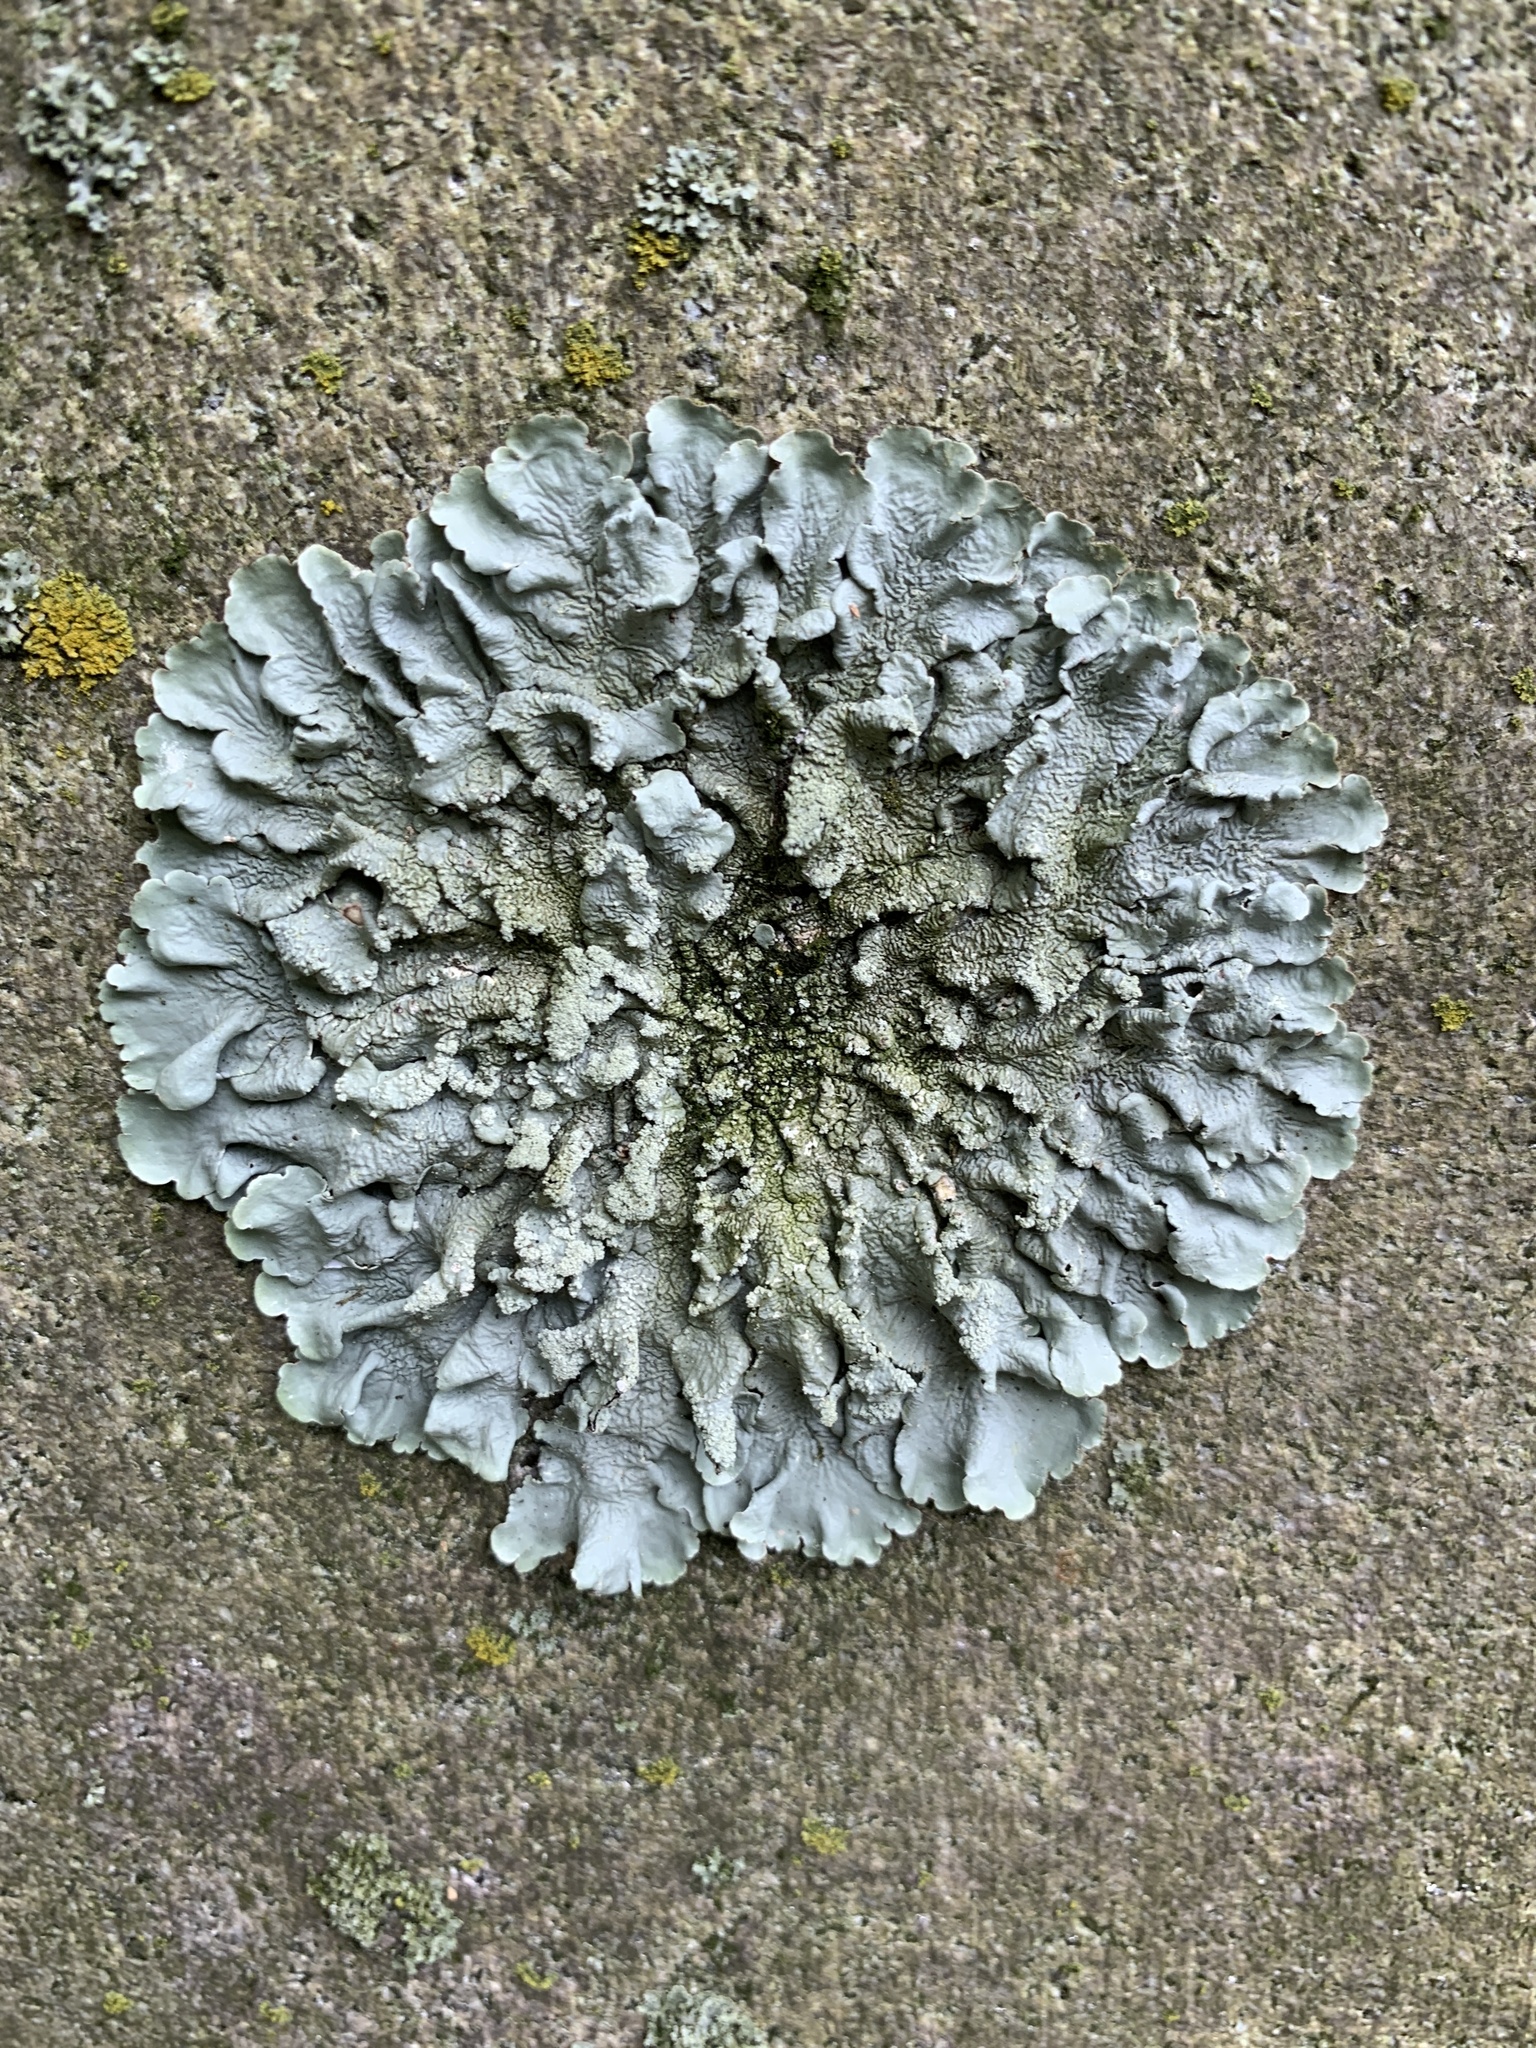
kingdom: Fungi
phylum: Ascomycota
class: Lecanoromycetes
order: Lecanorales
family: Parmeliaceae
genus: Flavoparmelia
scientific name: Flavoparmelia baltimorensis
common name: Rock greenshield
